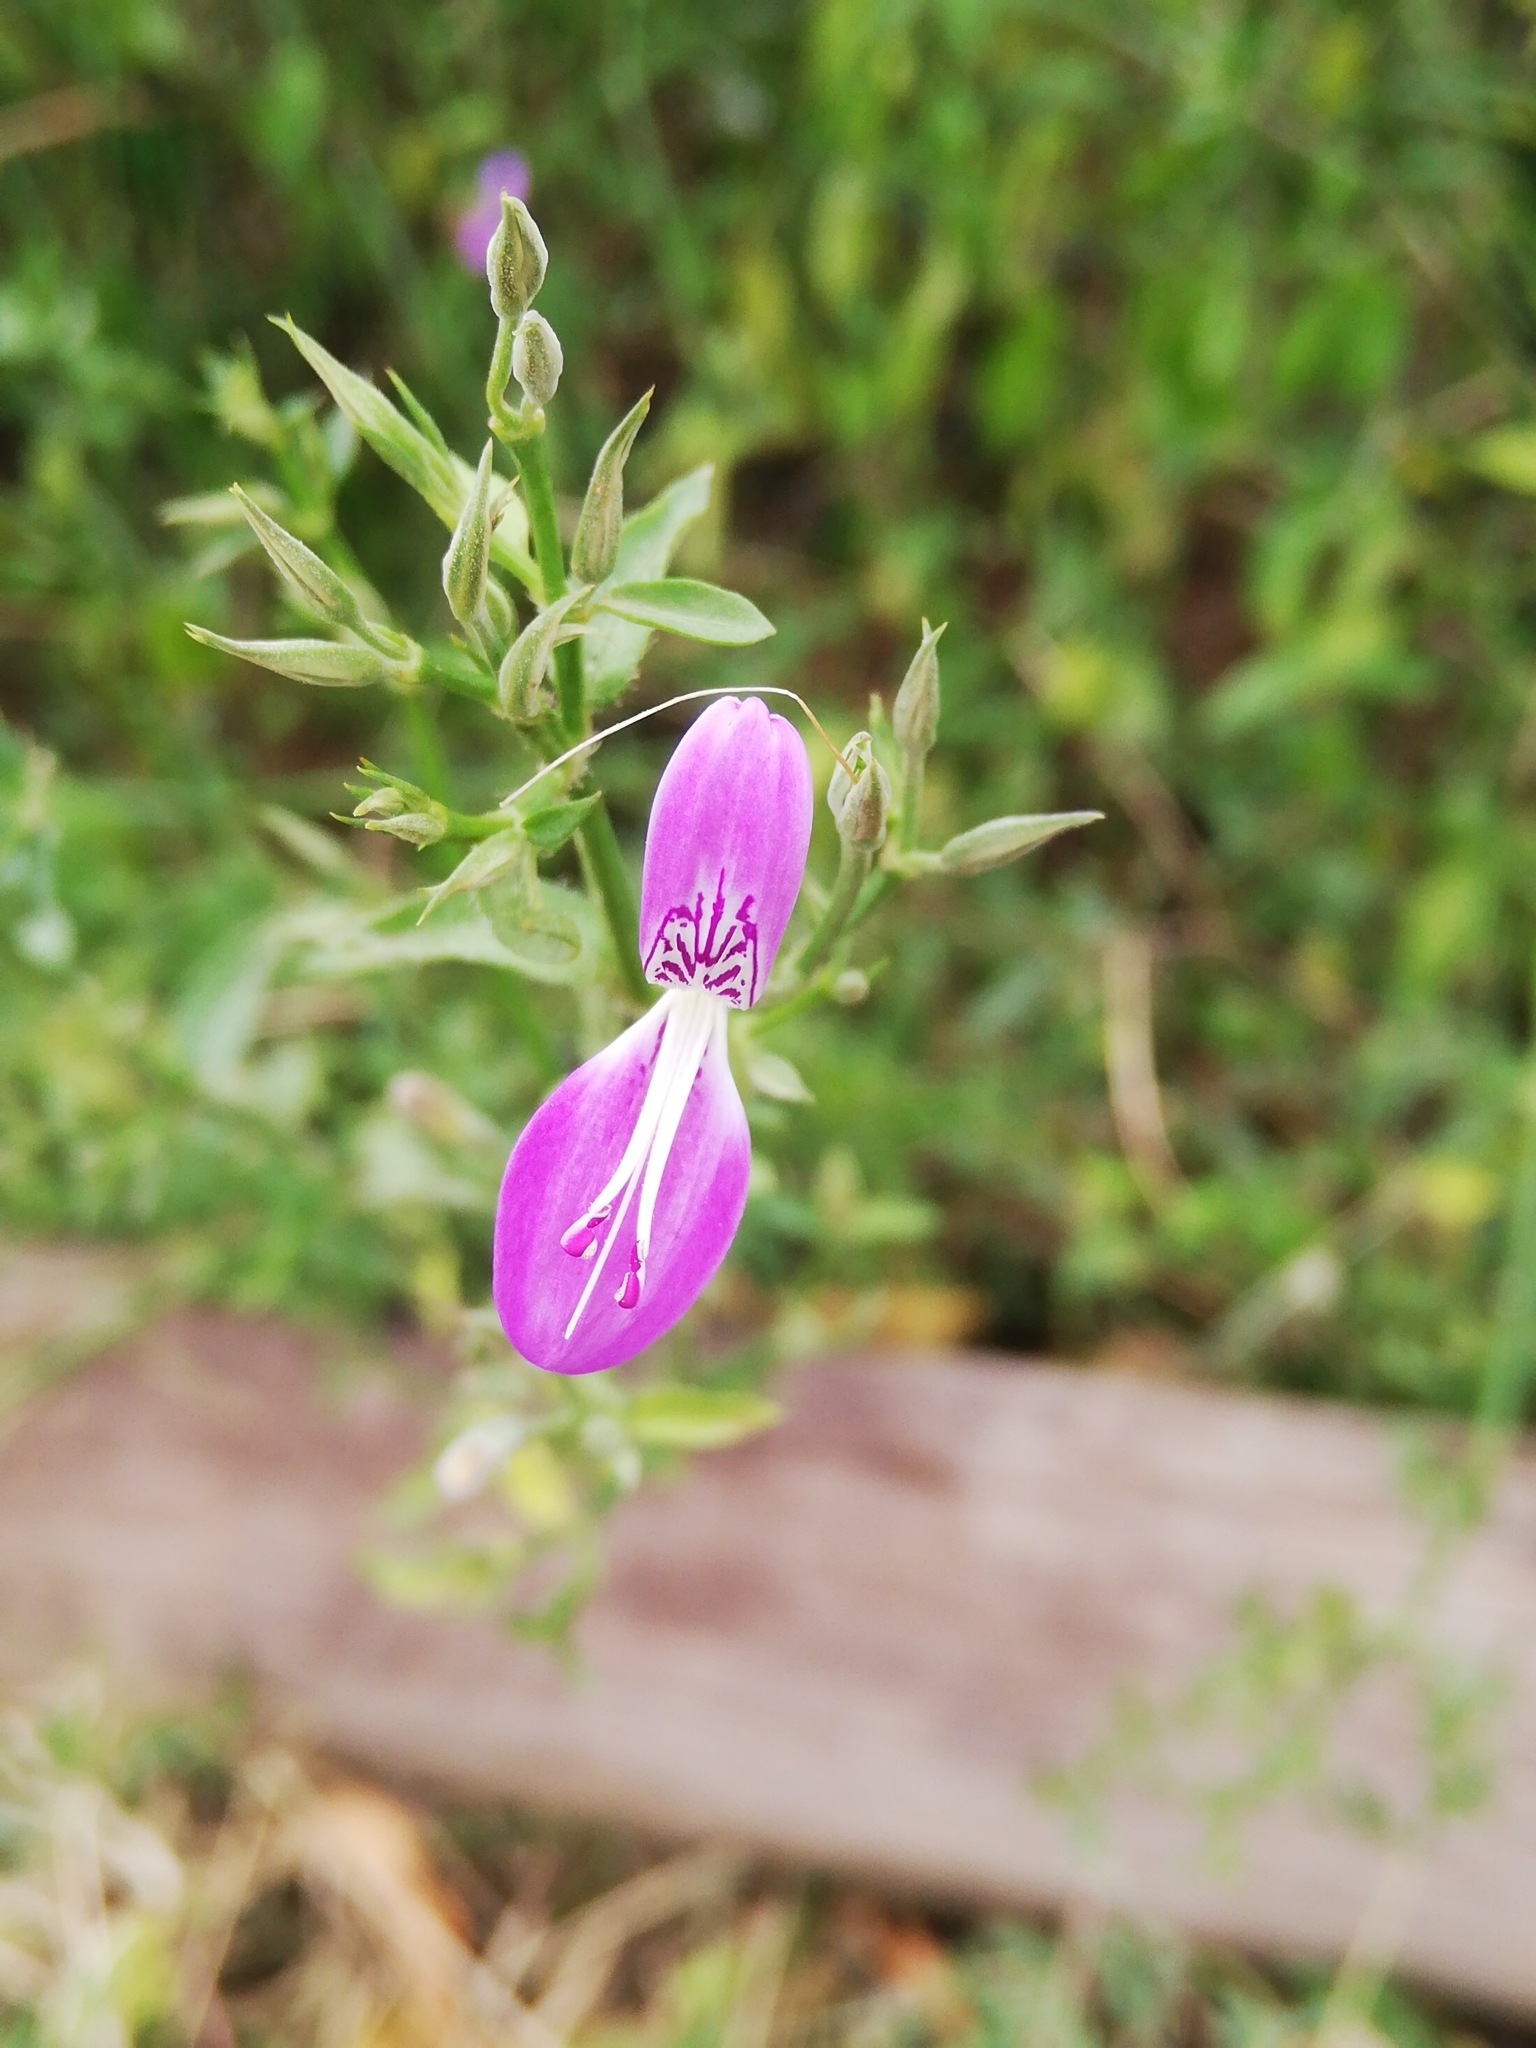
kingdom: Plantae
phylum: Tracheophyta
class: Magnoliopsida
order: Lamiales
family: Acanthaceae
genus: Dicliptera
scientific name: Dicliptera cernua
